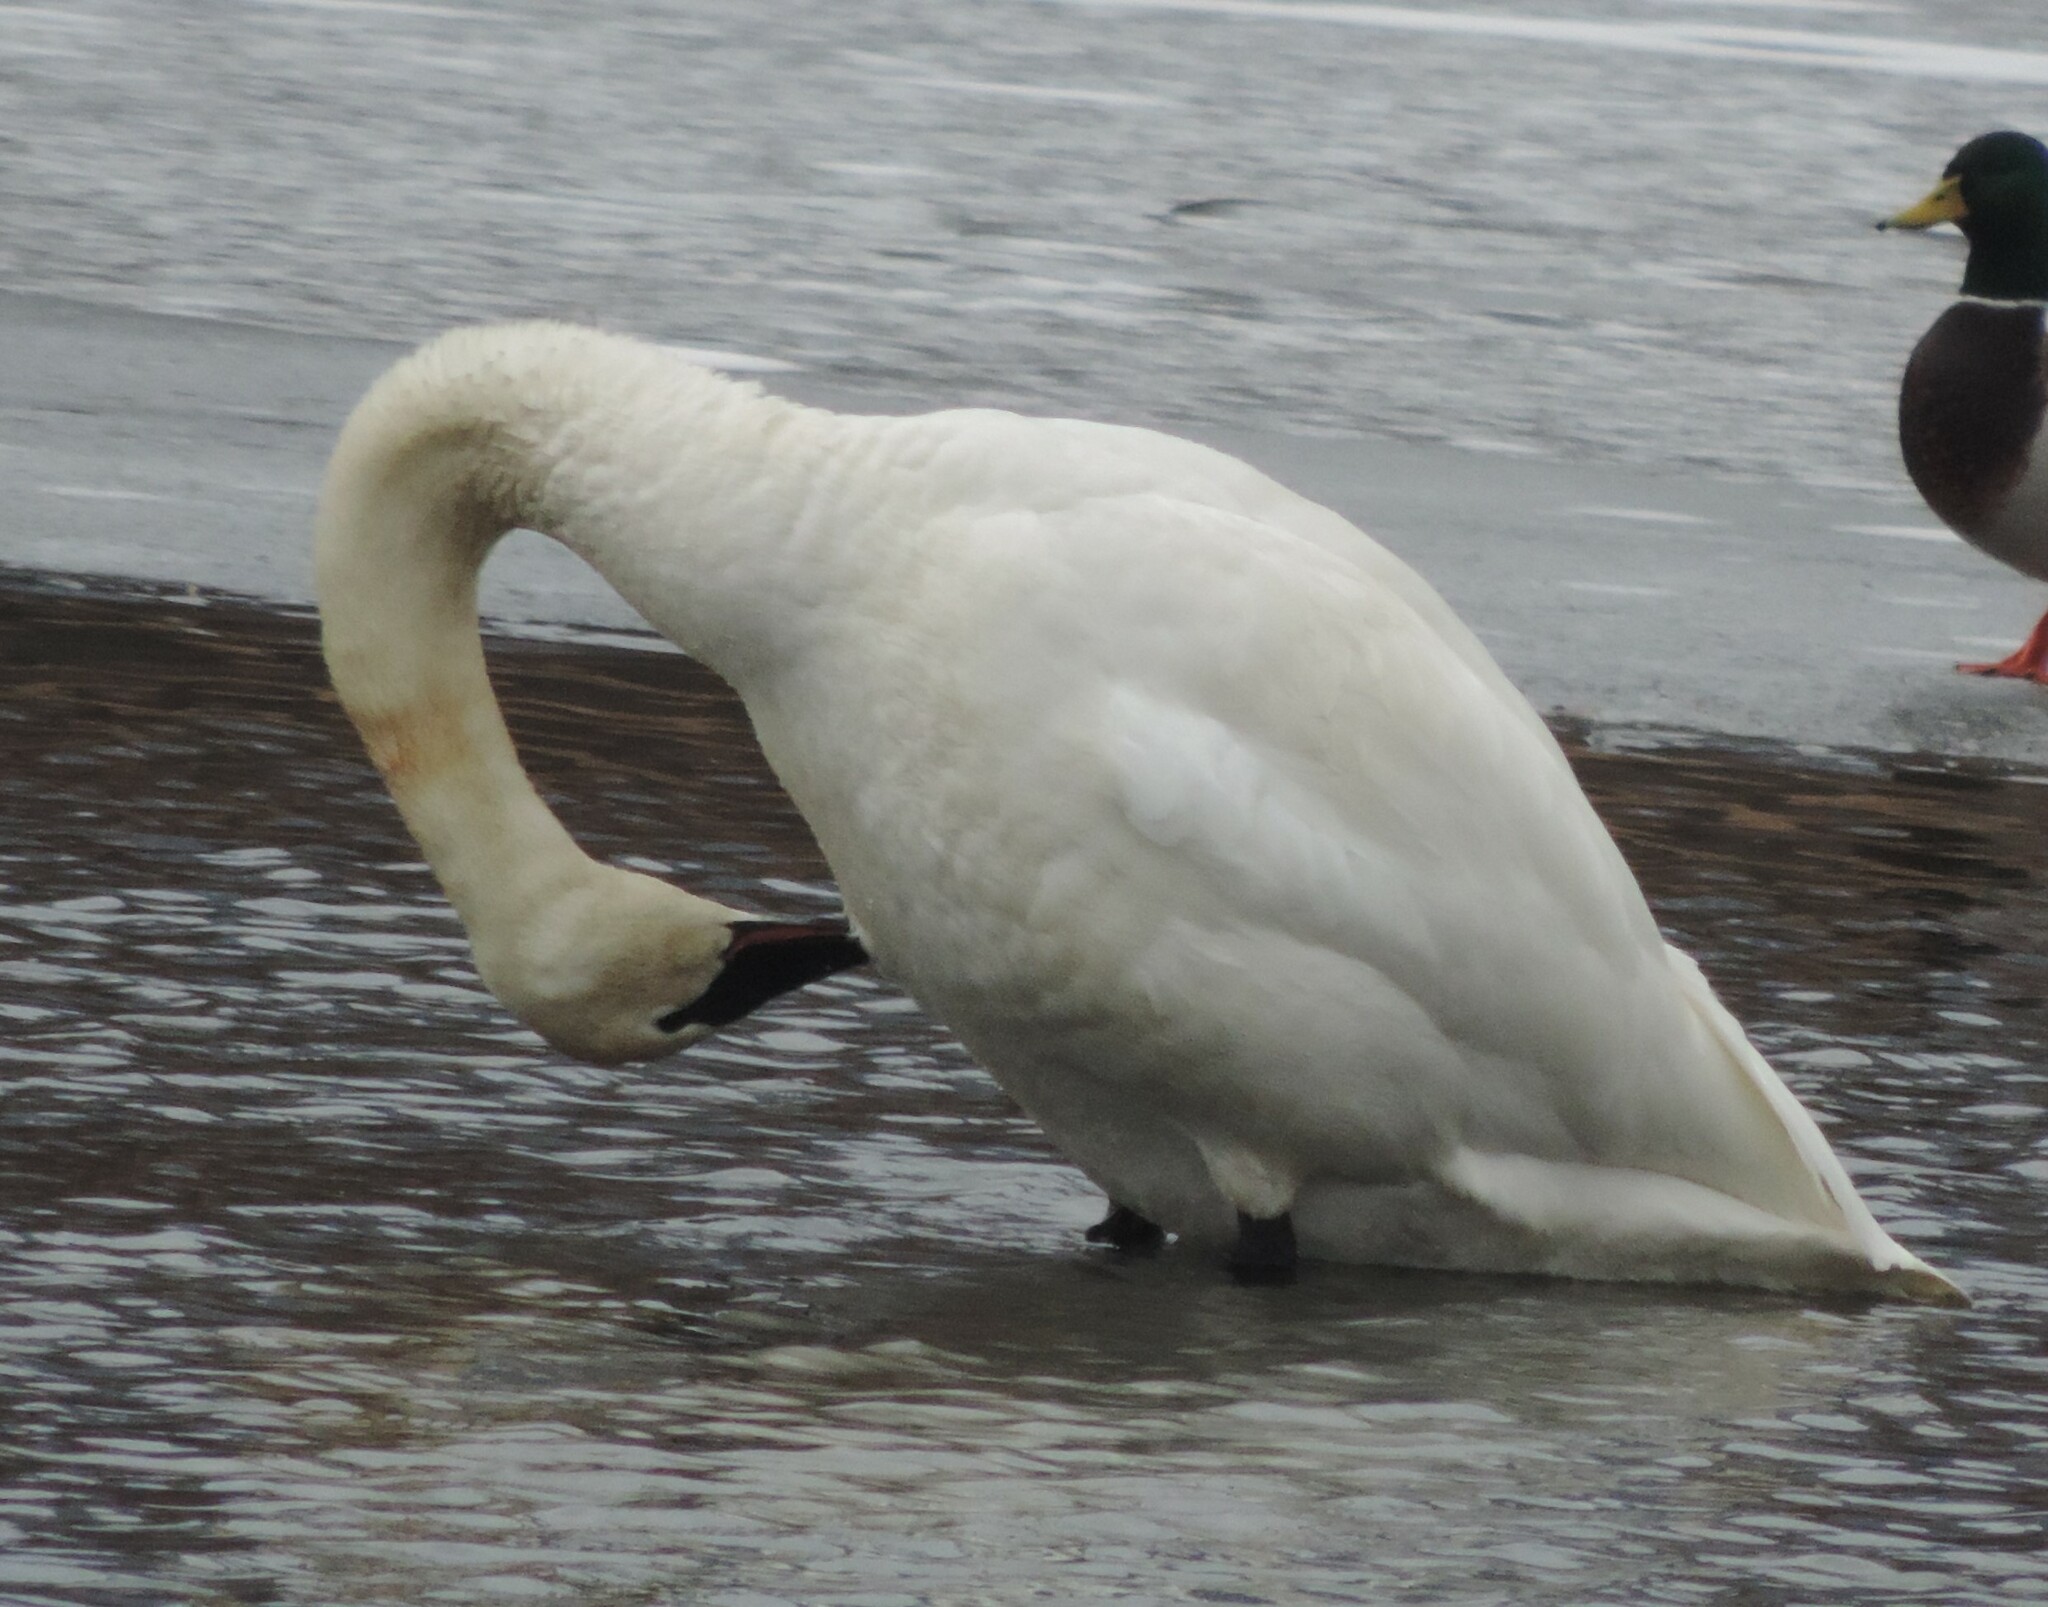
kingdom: Animalia
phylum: Chordata
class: Aves
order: Anseriformes
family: Anatidae
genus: Cygnus
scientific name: Cygnus buccinator
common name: Trumpeter swan
